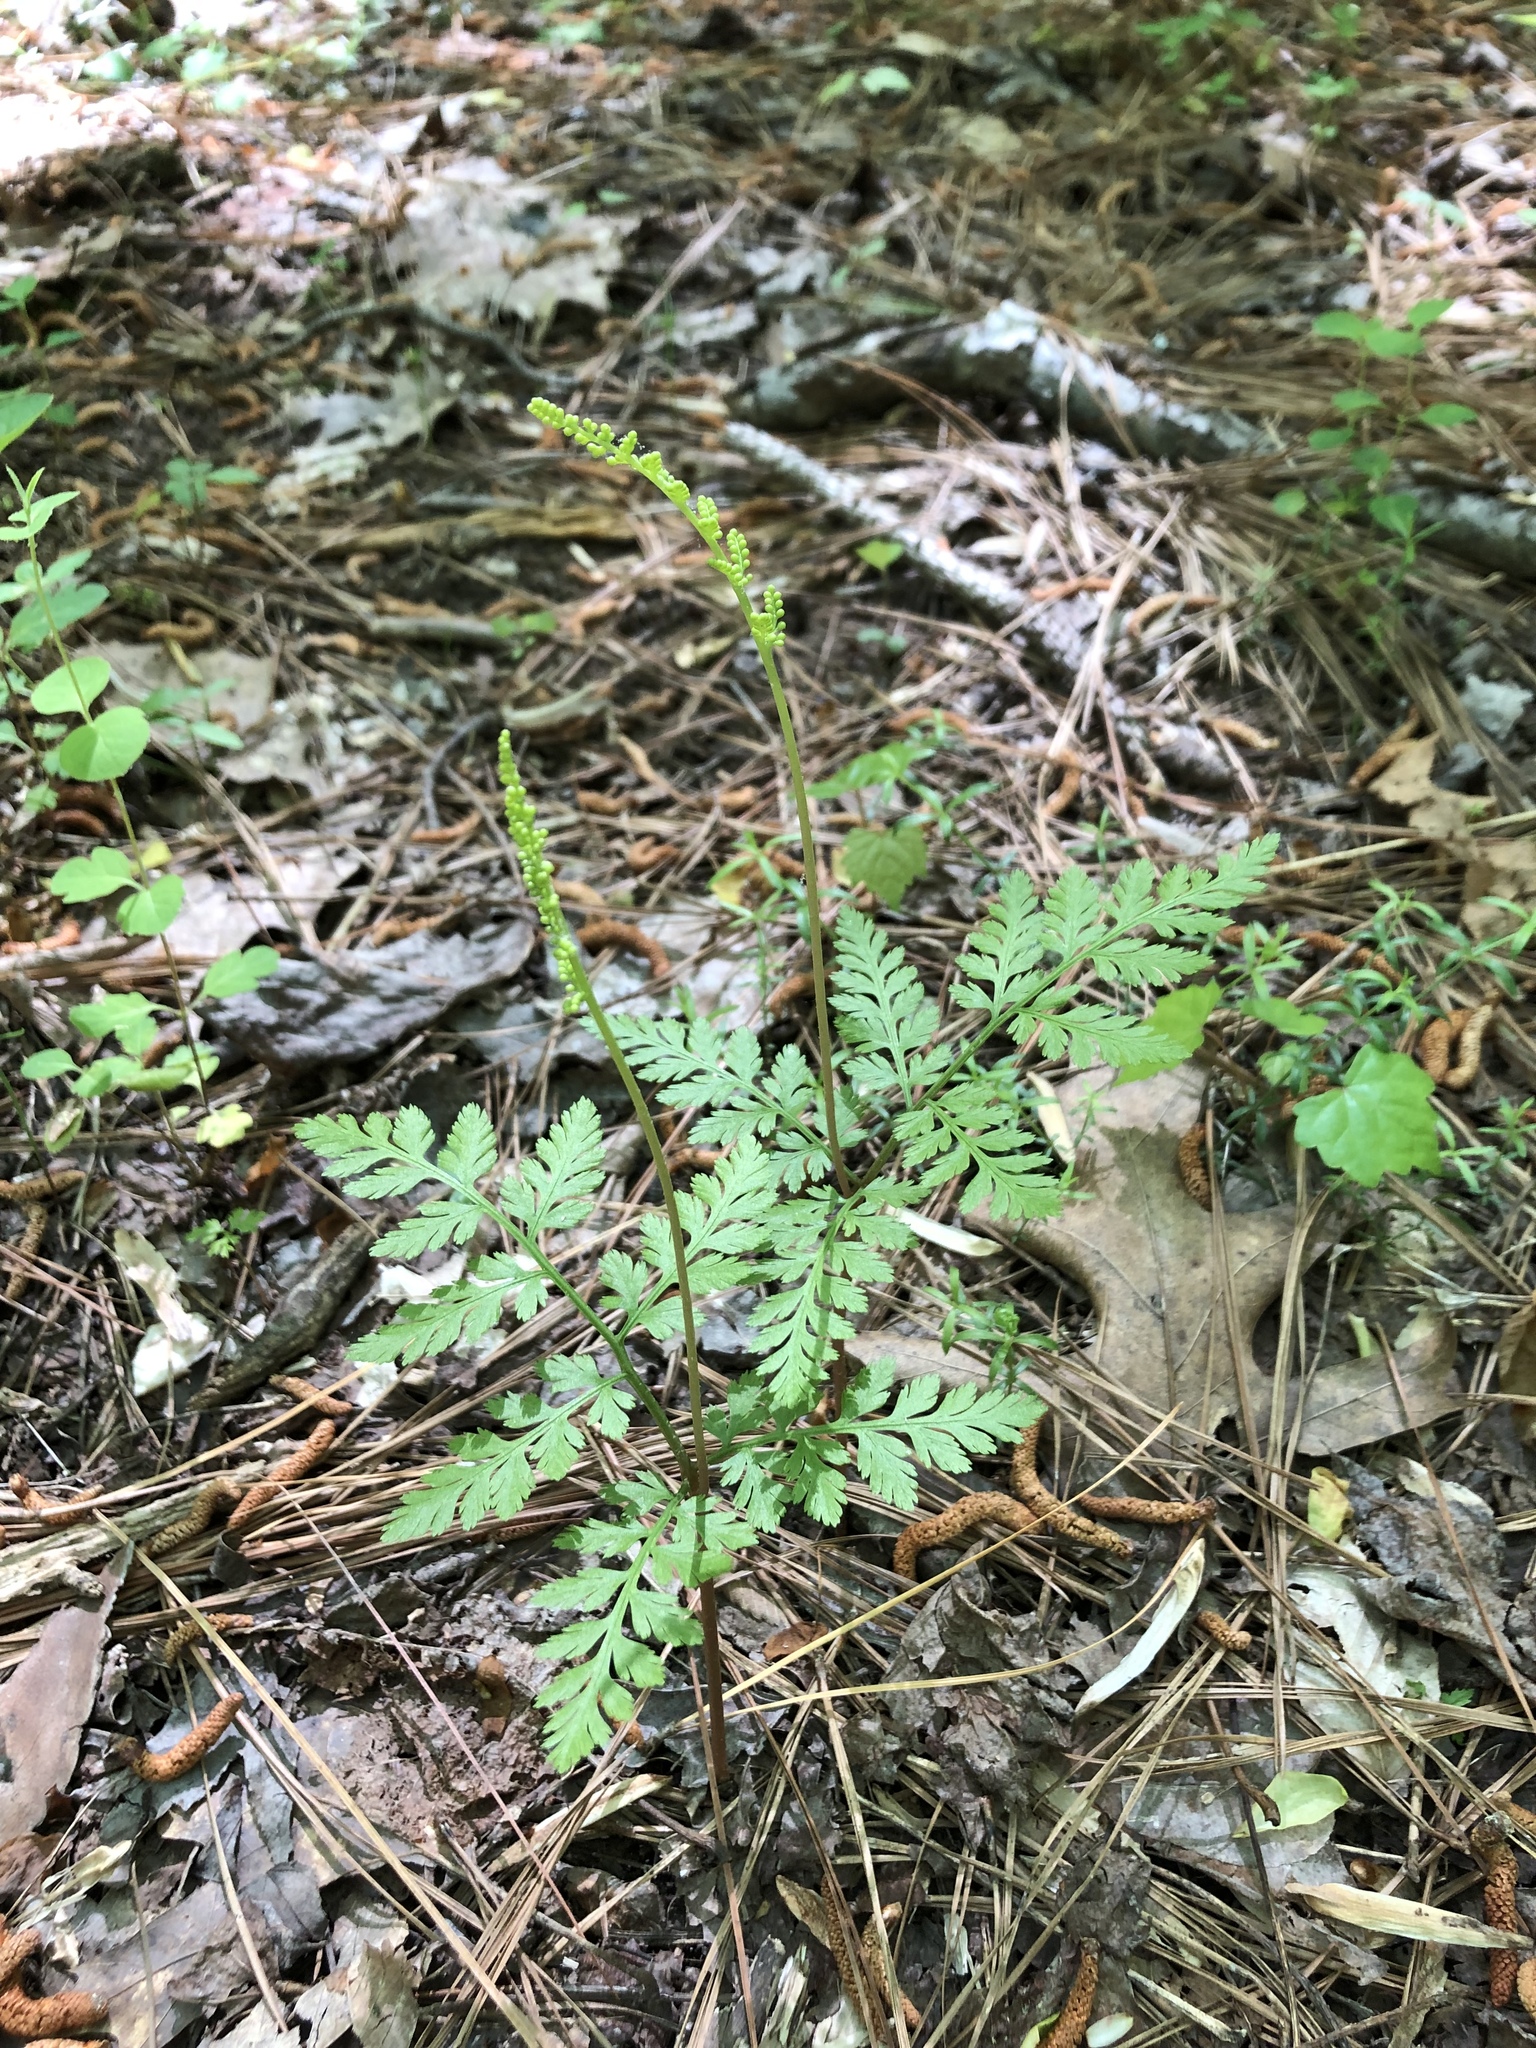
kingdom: Plantae
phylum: Tracheophyta
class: Polypodiopsida
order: Ophioglossales
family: Ophioglossaceae
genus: Botrypus
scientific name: Botrypus virginianus
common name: Common grapefern
